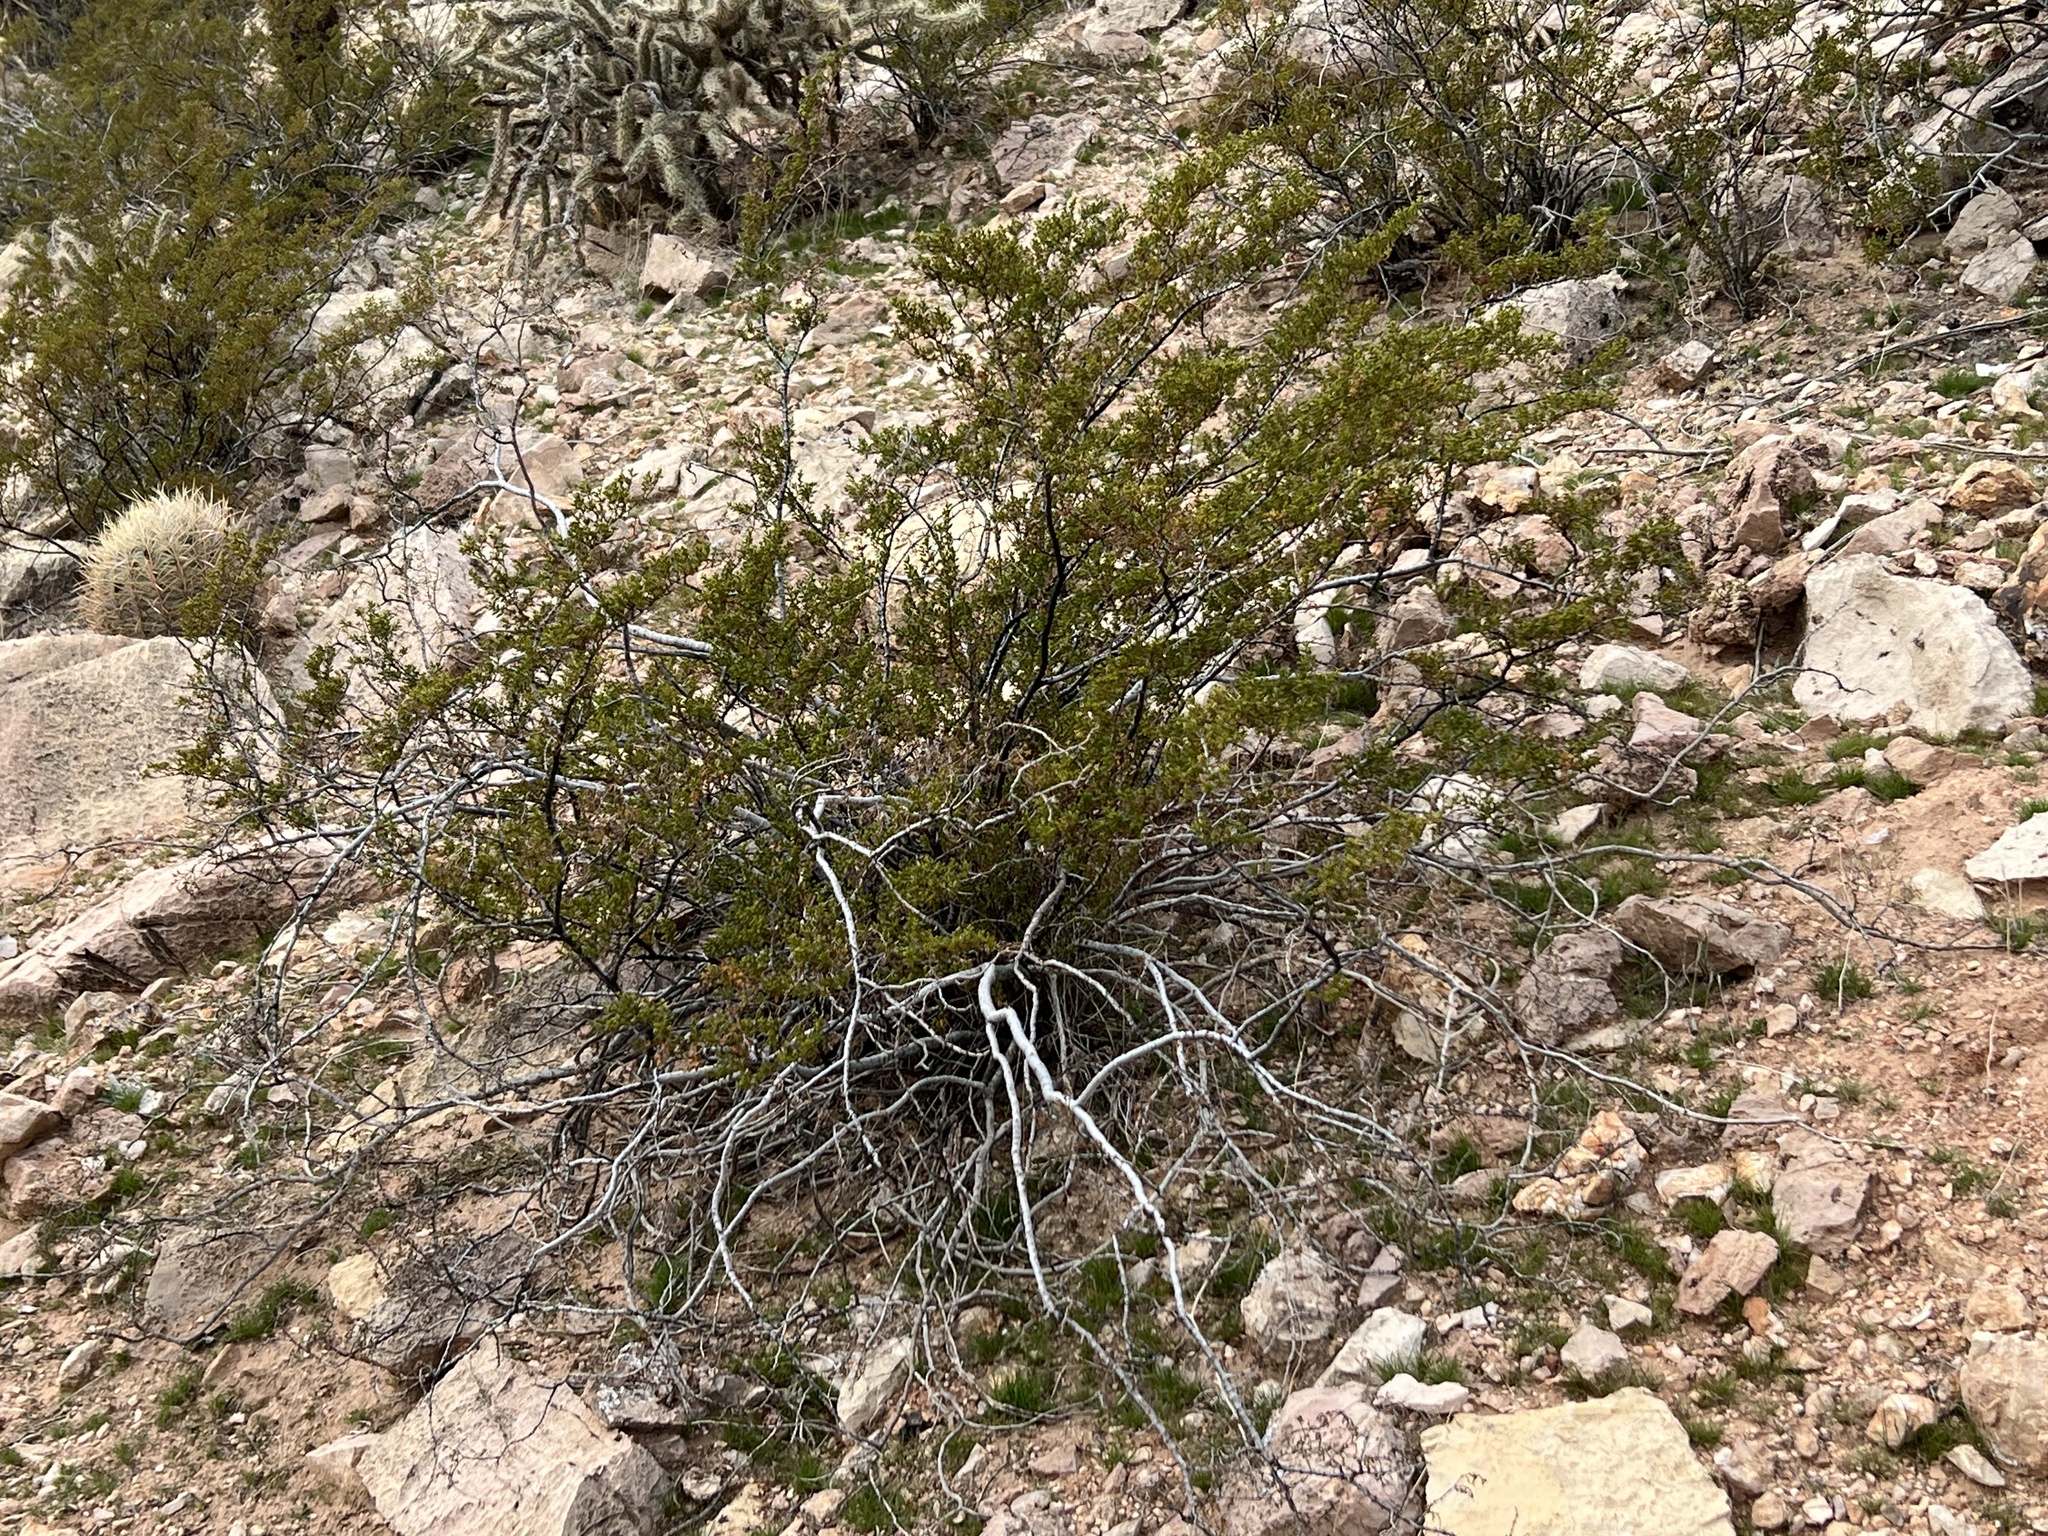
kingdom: Plantae
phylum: Tracheophyta
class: Magnoliopsida
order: Zygophyllales
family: Zygophyllaceae
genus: Larrea
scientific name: Larrea tridentata
